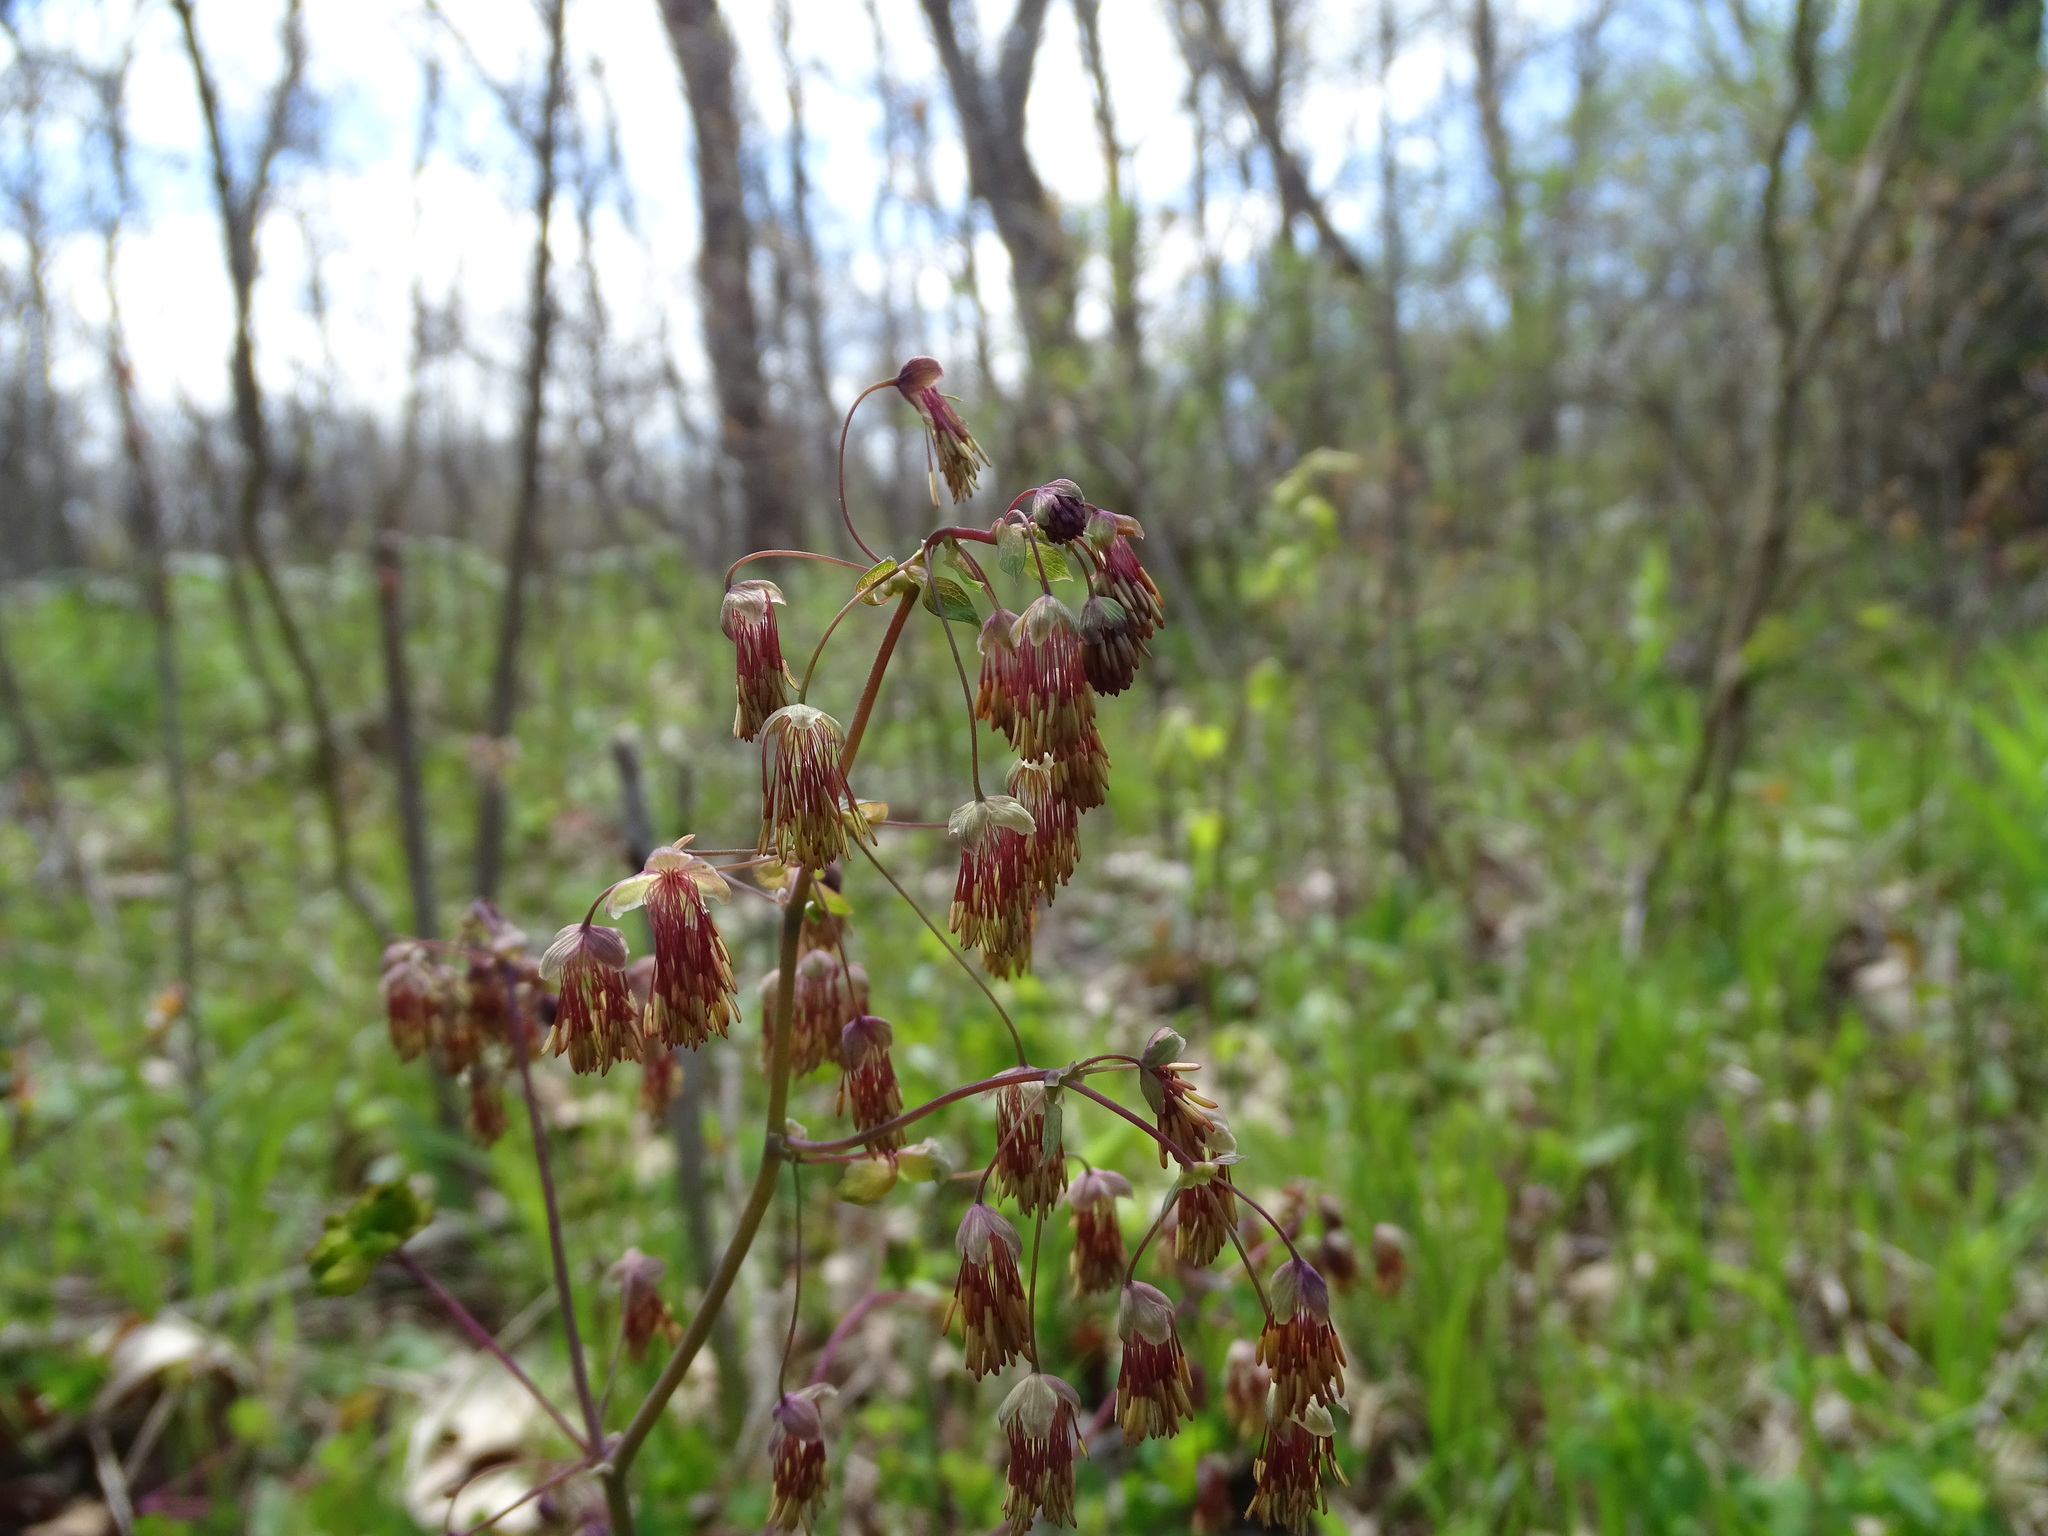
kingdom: Plantae
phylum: Tracheophyta
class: Magnoliopsida
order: Ranunculales
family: Ranunculaceae
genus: Thalictrum
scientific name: Thalictrum dioicum
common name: Early meadow-rue
